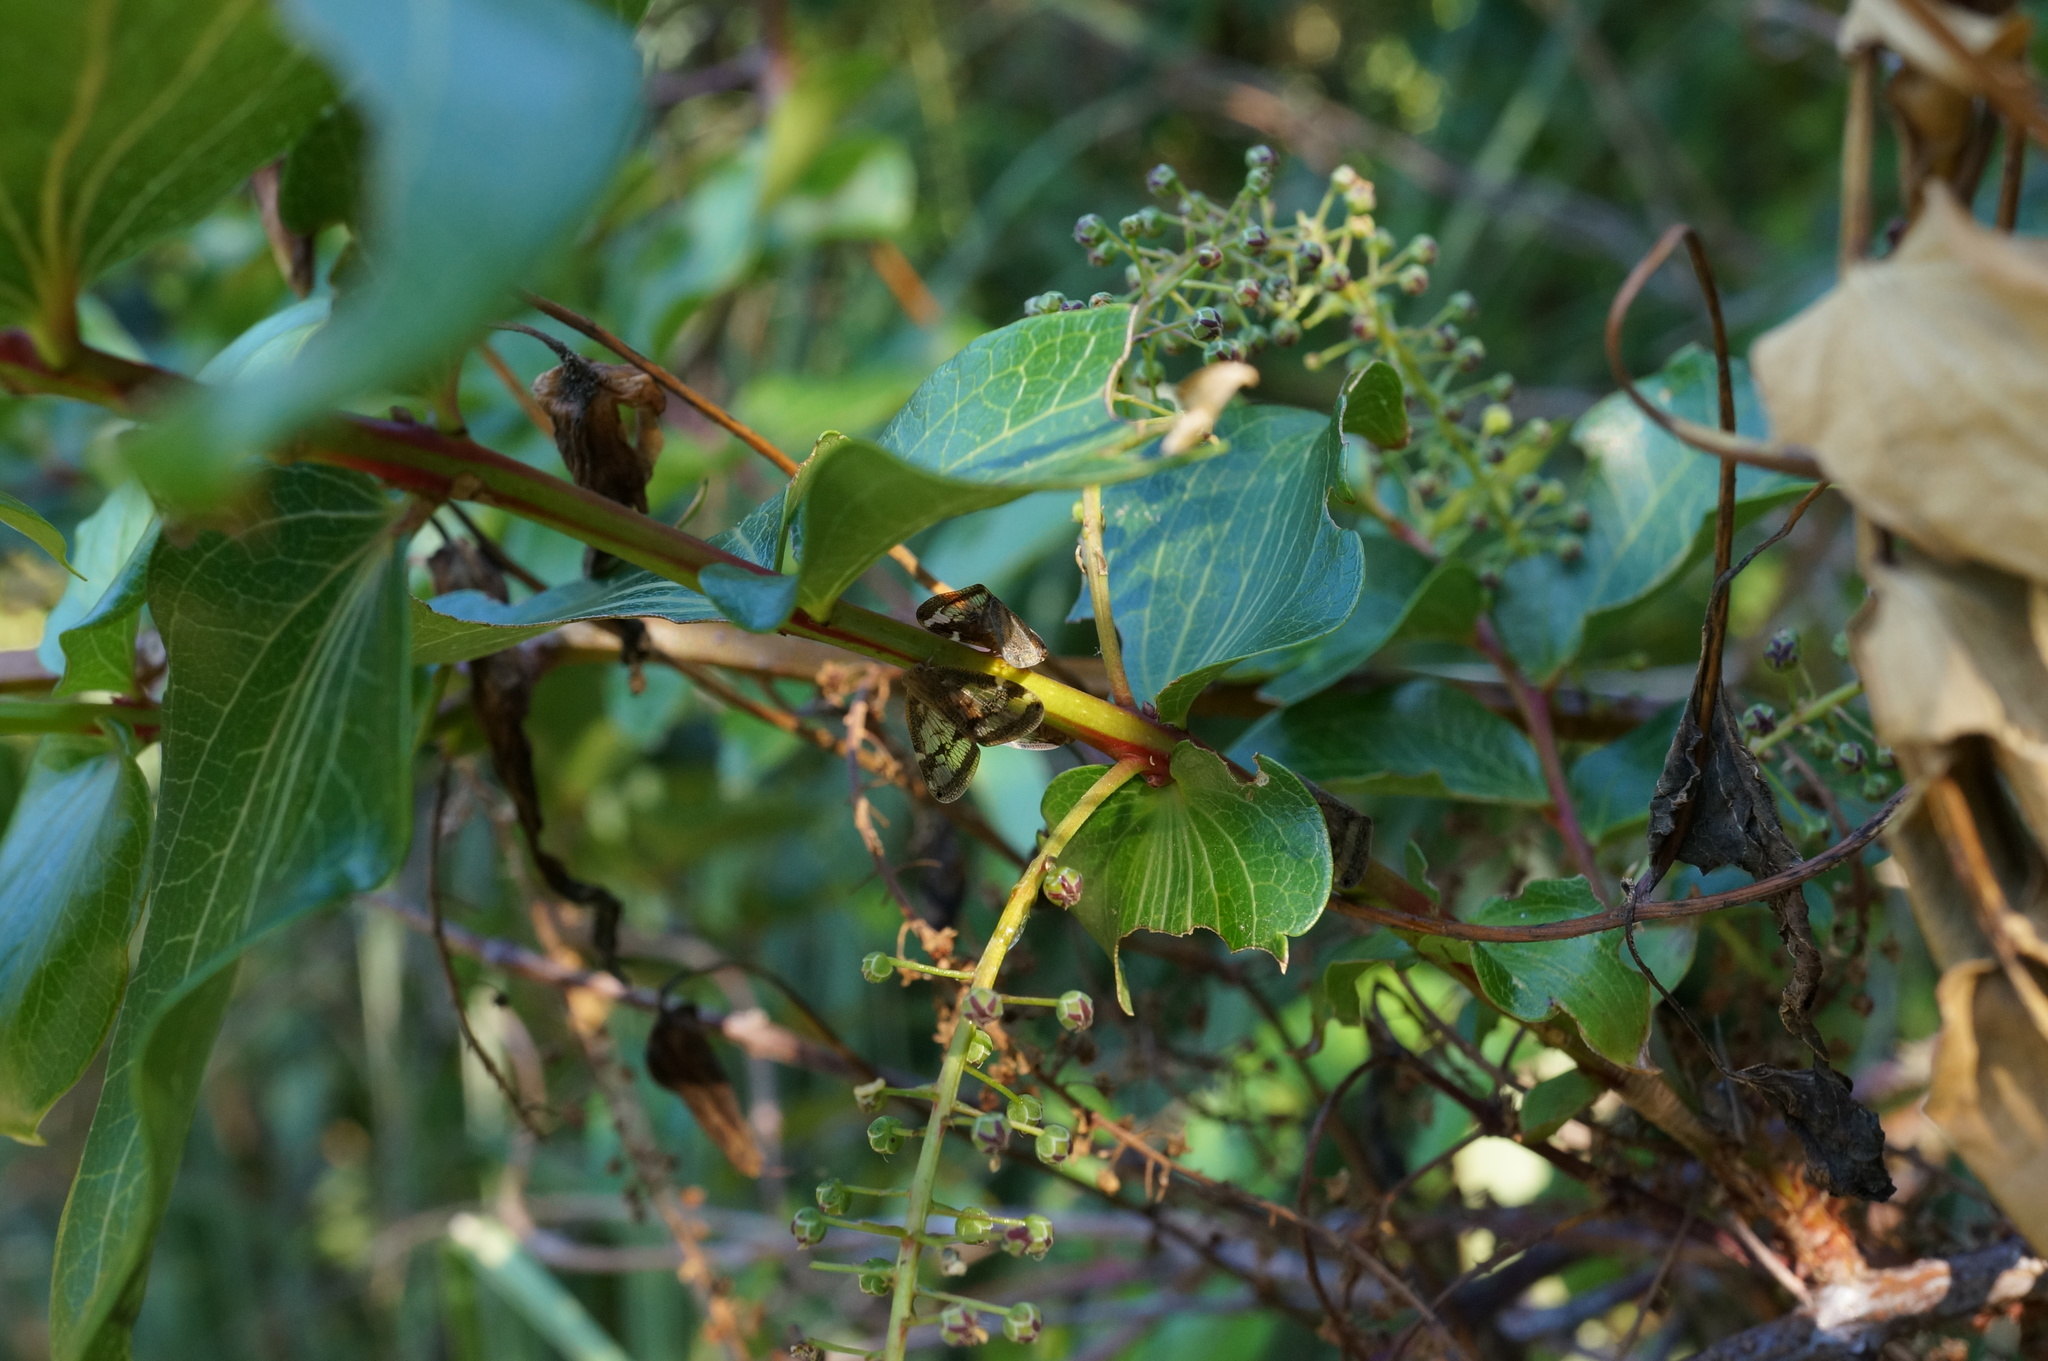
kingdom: Plantae
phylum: Tracheophyta
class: Magnoliopsida
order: Cucurbitales
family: Coriariaceae
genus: Coriaria
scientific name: Coriaria arborea
